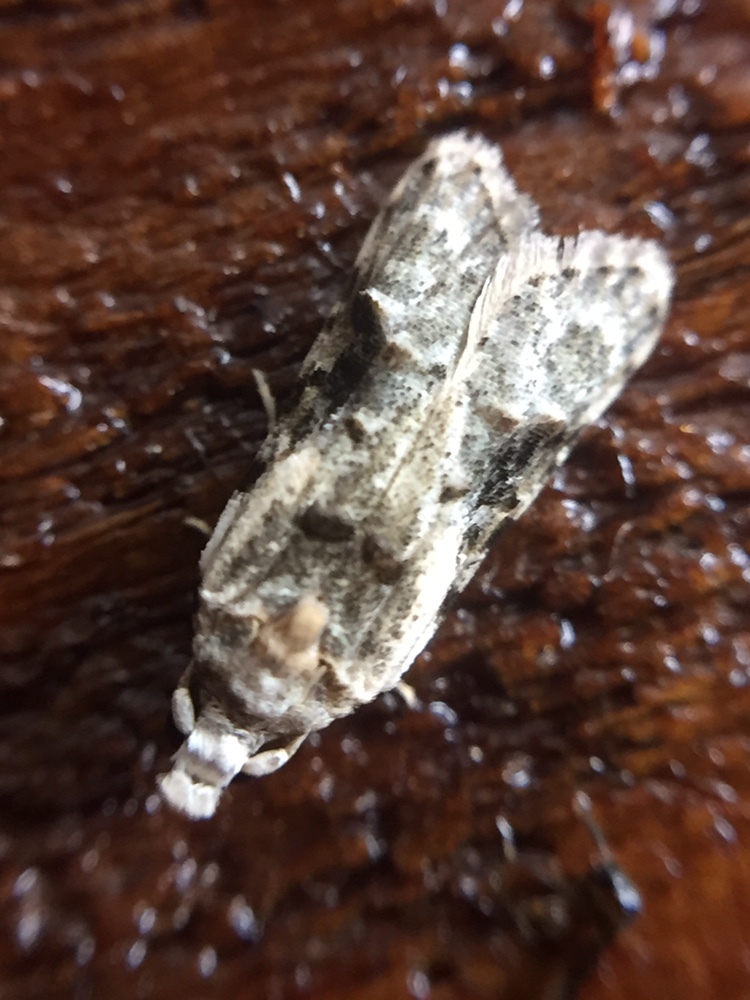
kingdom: Animalia
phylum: Arthropoda
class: Insecta
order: Lepidoptera
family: Carposinidae
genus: Coscinoptycha
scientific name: Coscinoptycha improbana
